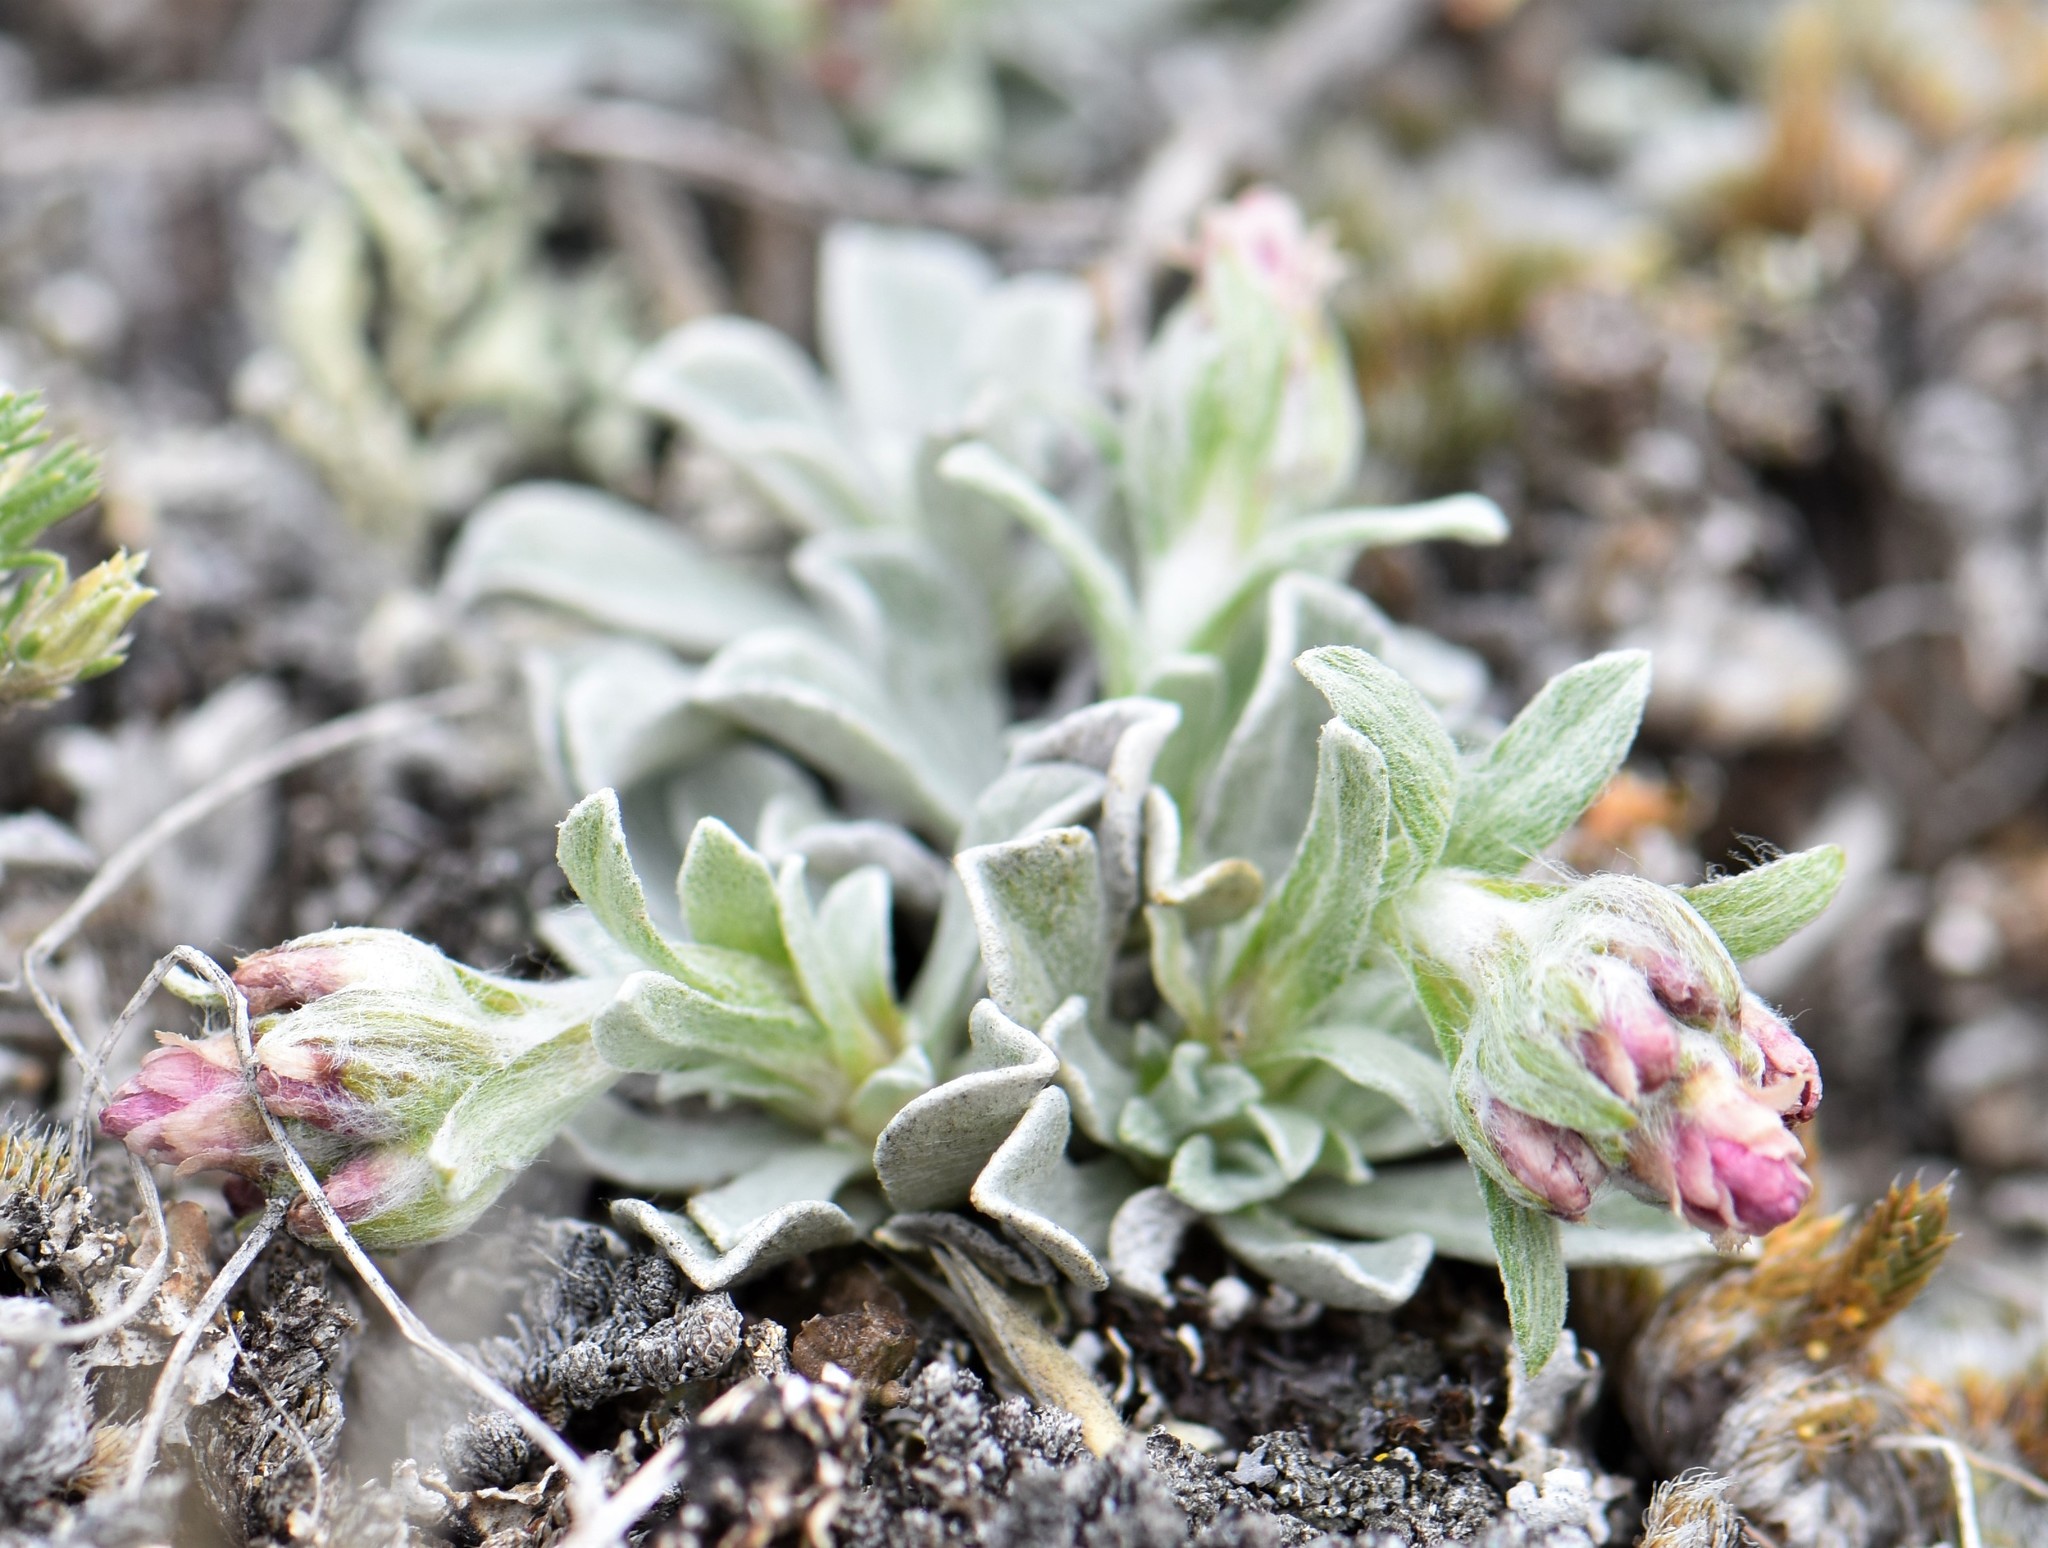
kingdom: Plantae
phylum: Tracheophyta
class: Magnoliopsida
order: Asterales
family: Asteraceae
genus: Antennaria
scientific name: Antennaria rosea
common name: Rosy pussytoes
